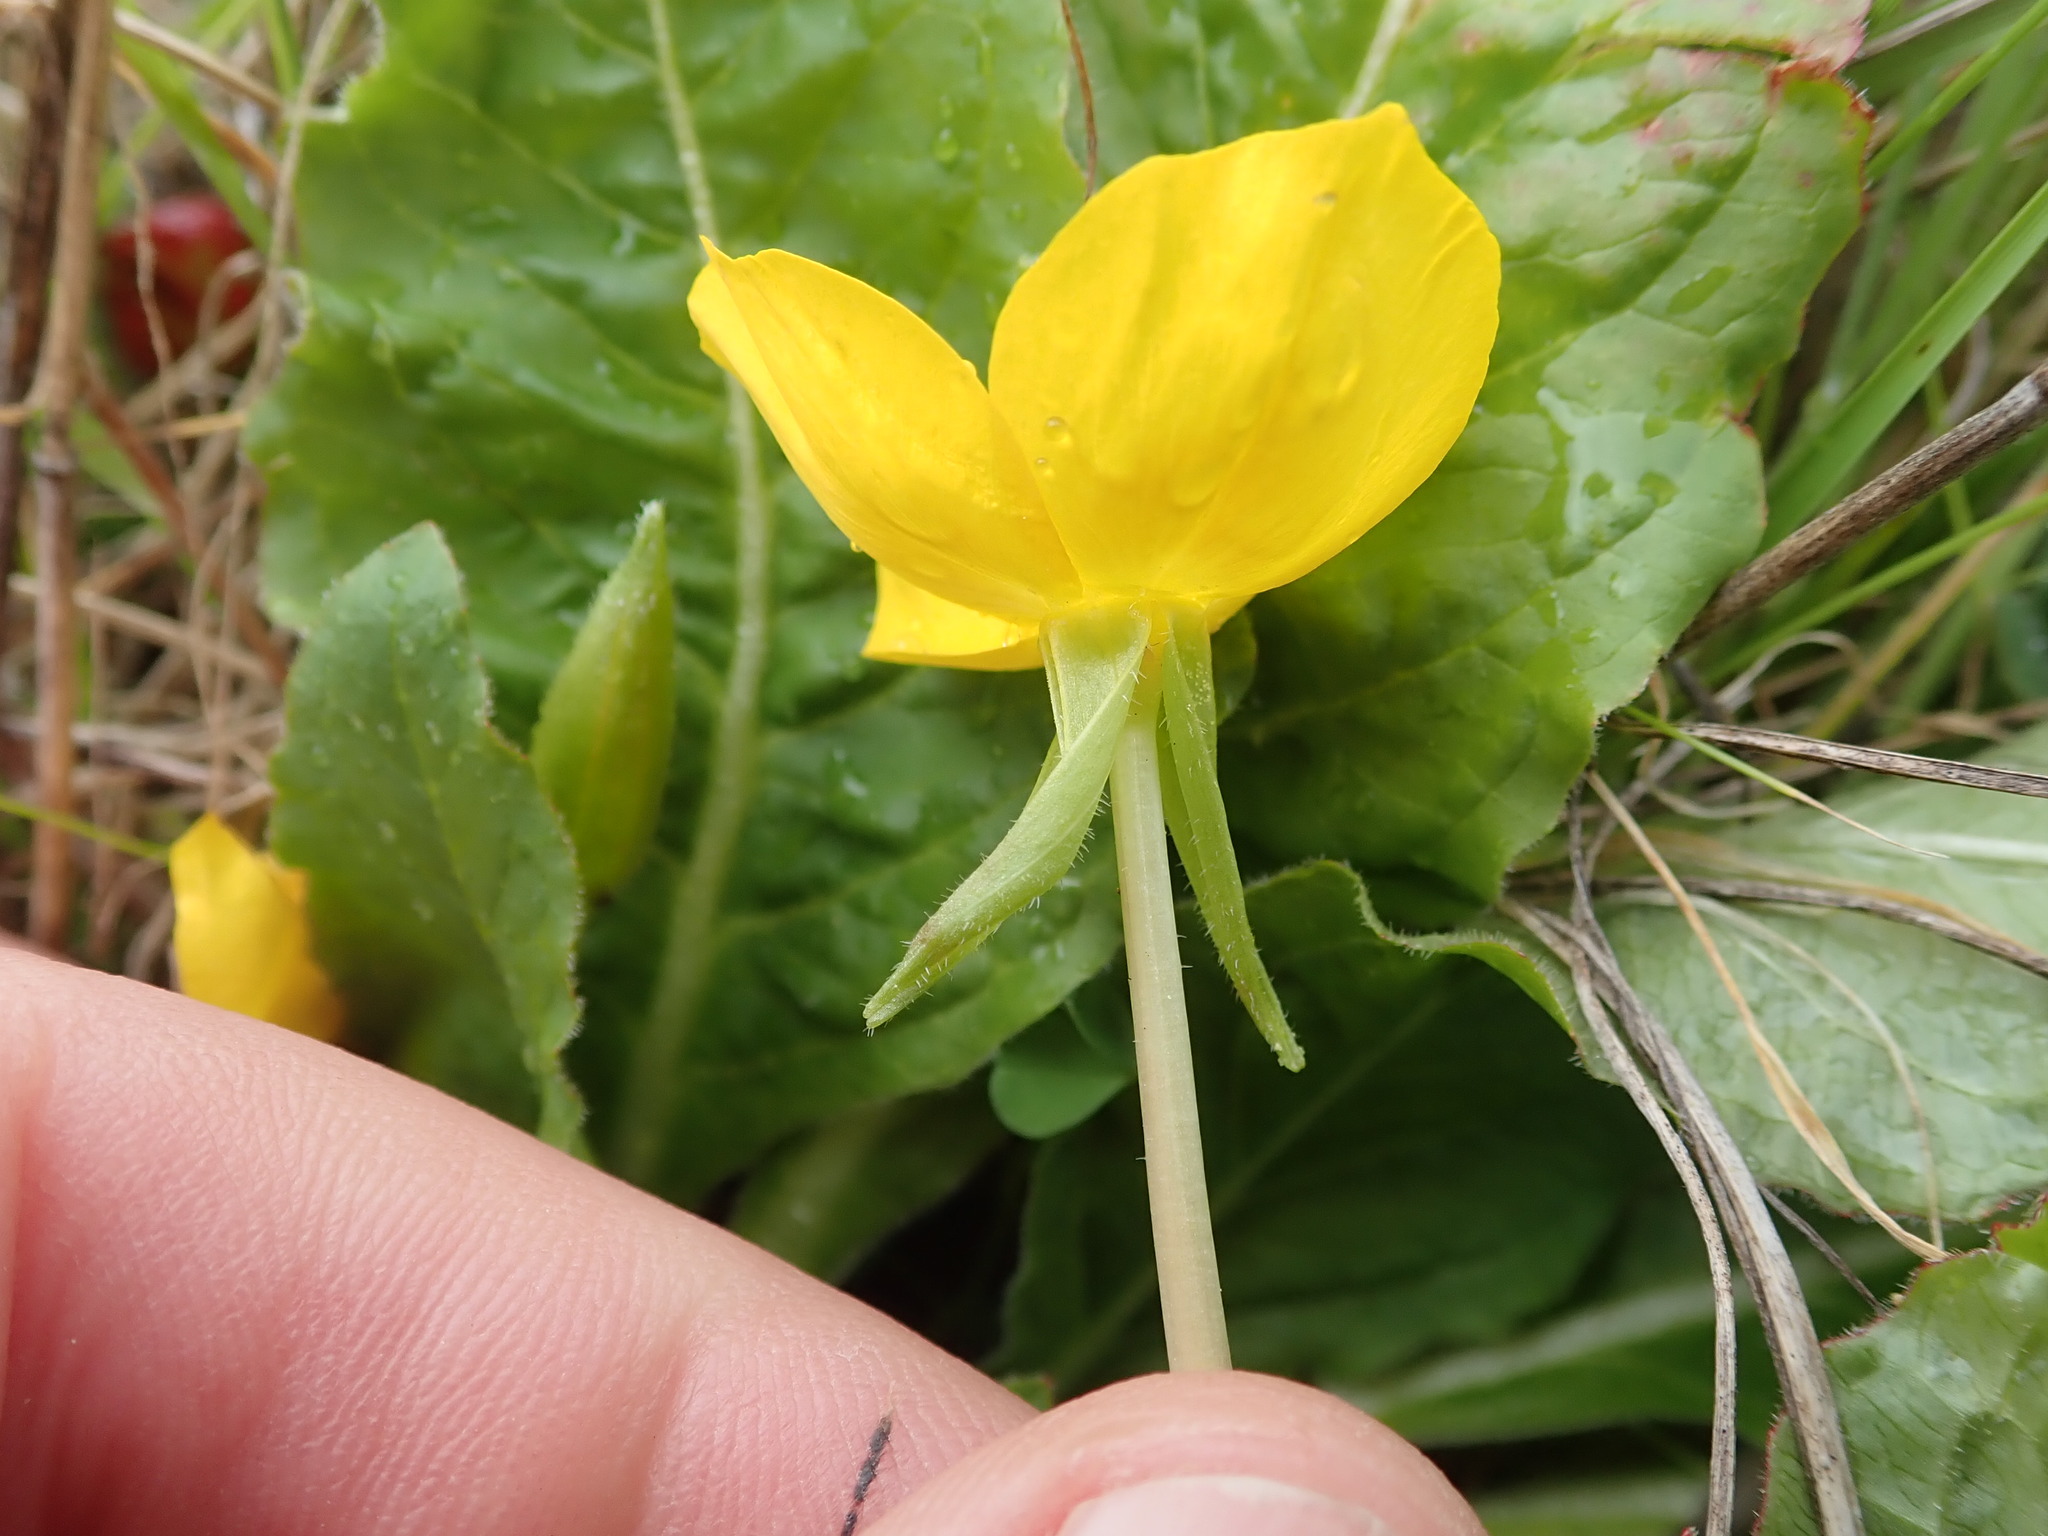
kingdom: Plantae
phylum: Tracheophyta
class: Magnoliopsida
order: Myrtales
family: Onagraceae
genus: Taraxia
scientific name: Taraxia ovata
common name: Goldeneggs
